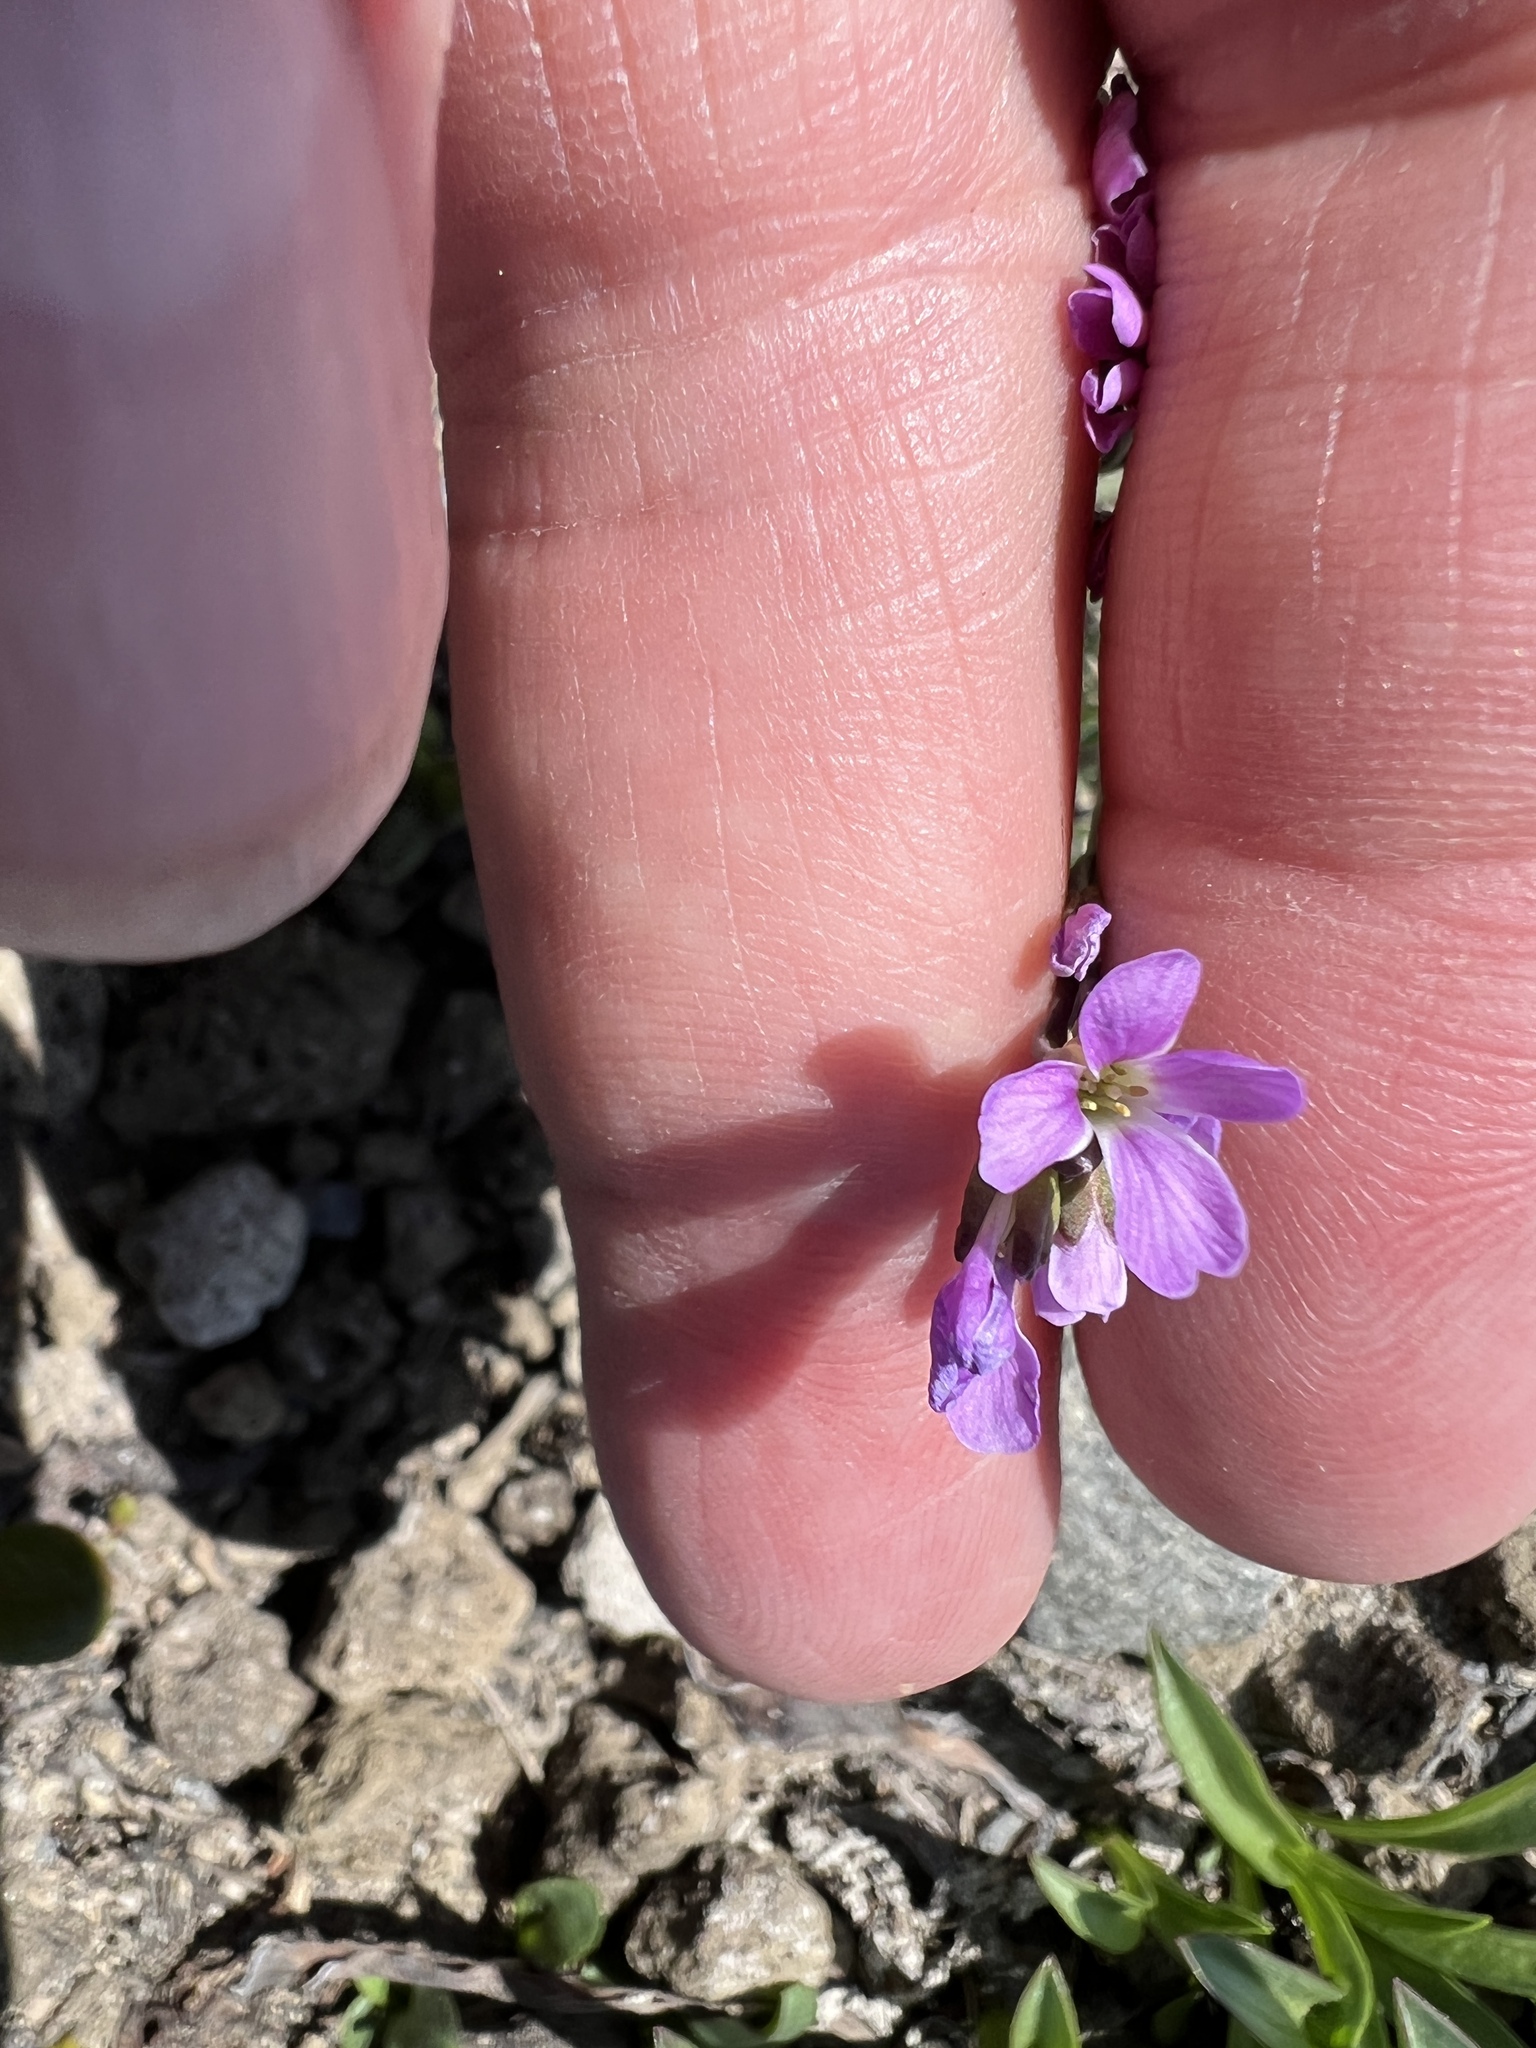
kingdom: Plantae
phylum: Tracheophyta
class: Magnoliopsida
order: Brassicales
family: Brassicaceae
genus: Boechera
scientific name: Boechera lyallii
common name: Lyall's rockcress
